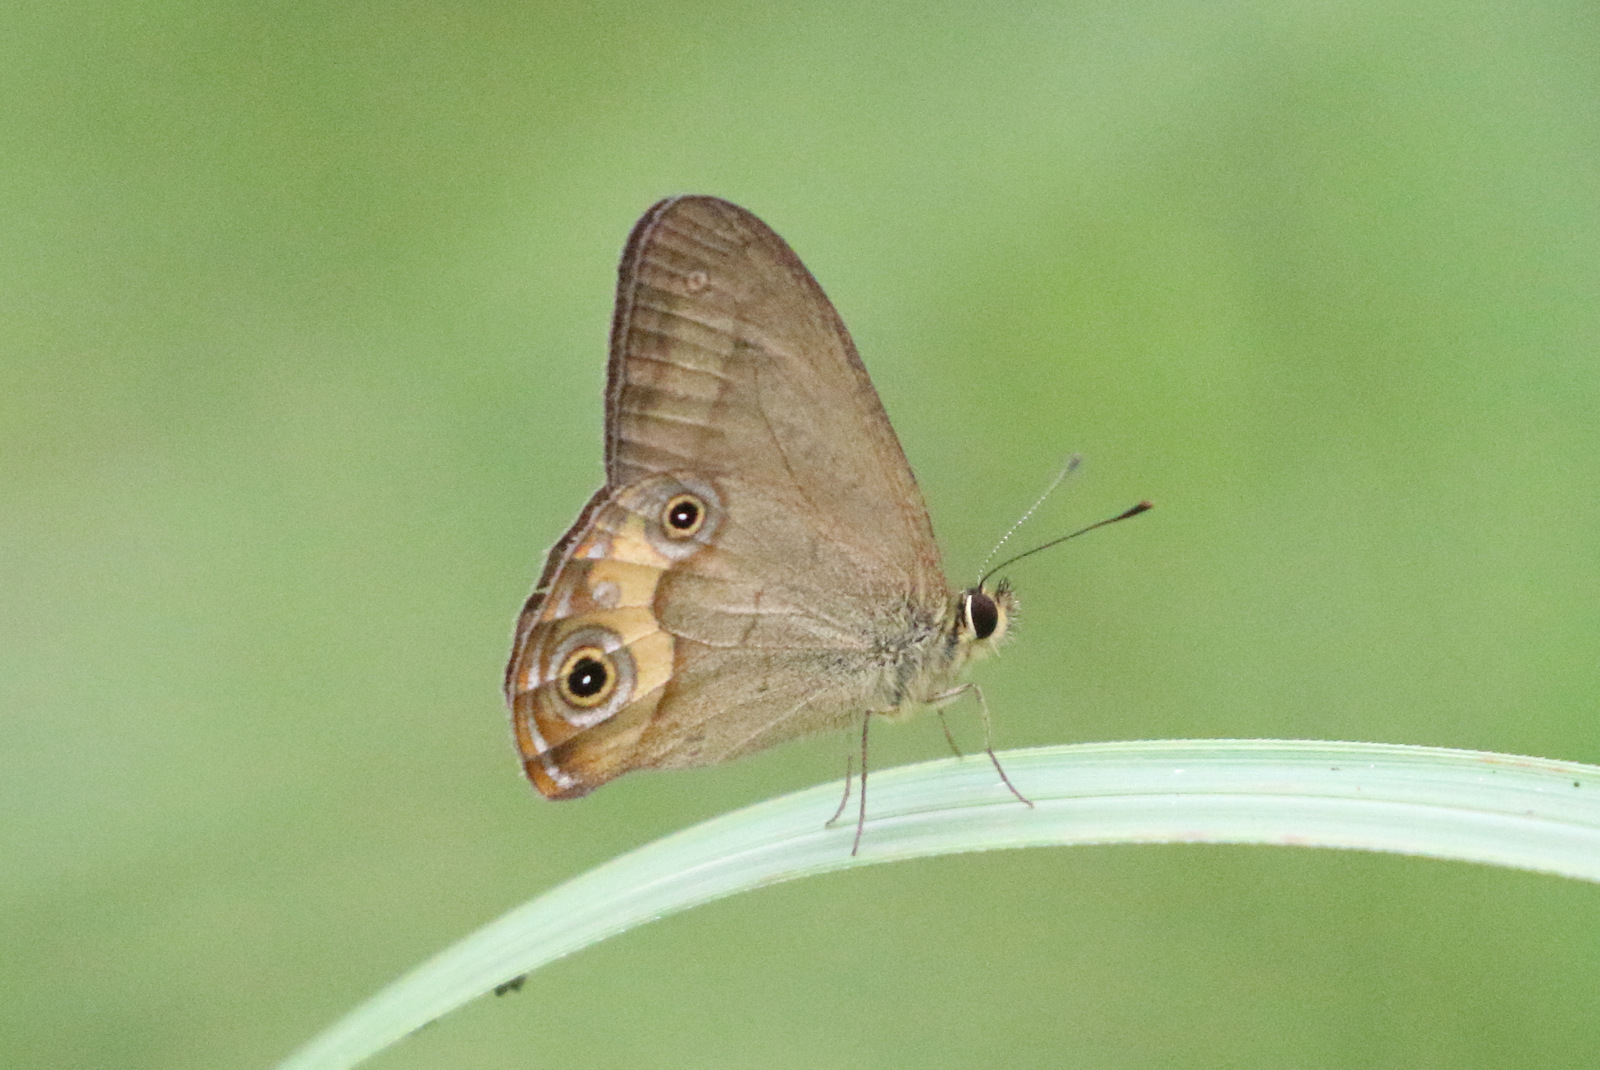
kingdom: Animalia
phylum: Arthropoda
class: Insecta
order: Lepidoptera
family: Nymphalidae
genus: Hypocysta
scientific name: Hypocysta metirius
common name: Brown ringlet
